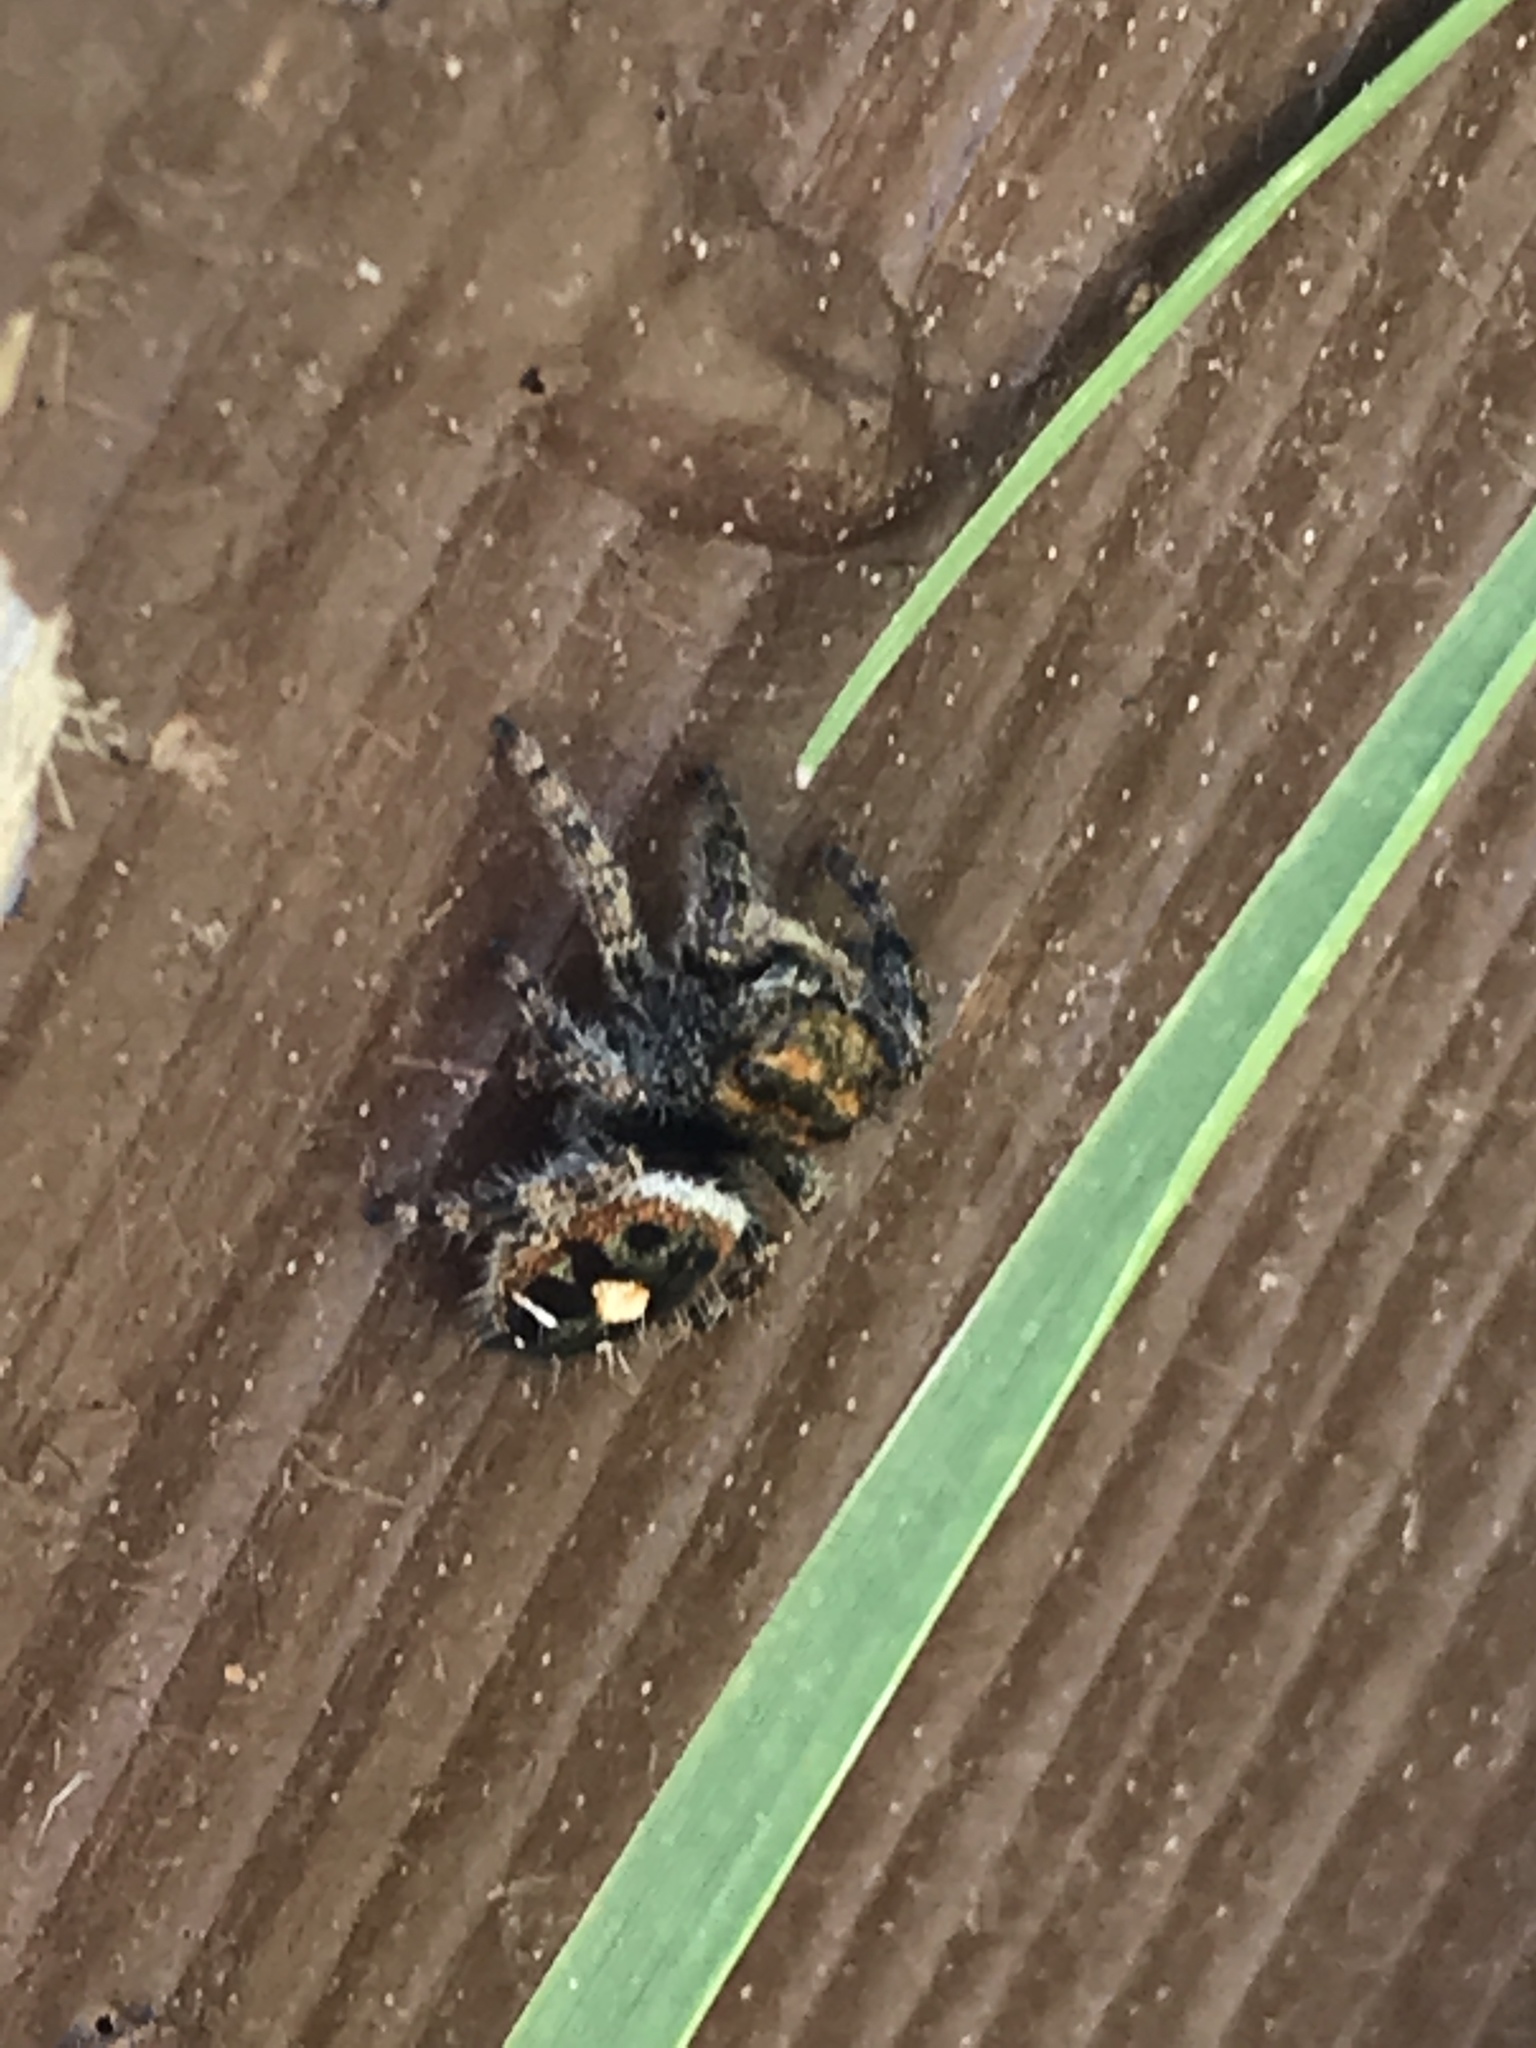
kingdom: Animalia
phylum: Arthropoda
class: Arachnida
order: Araneae
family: Salticidae
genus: Phidippus
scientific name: Phidippus audax
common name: Bold jumper
